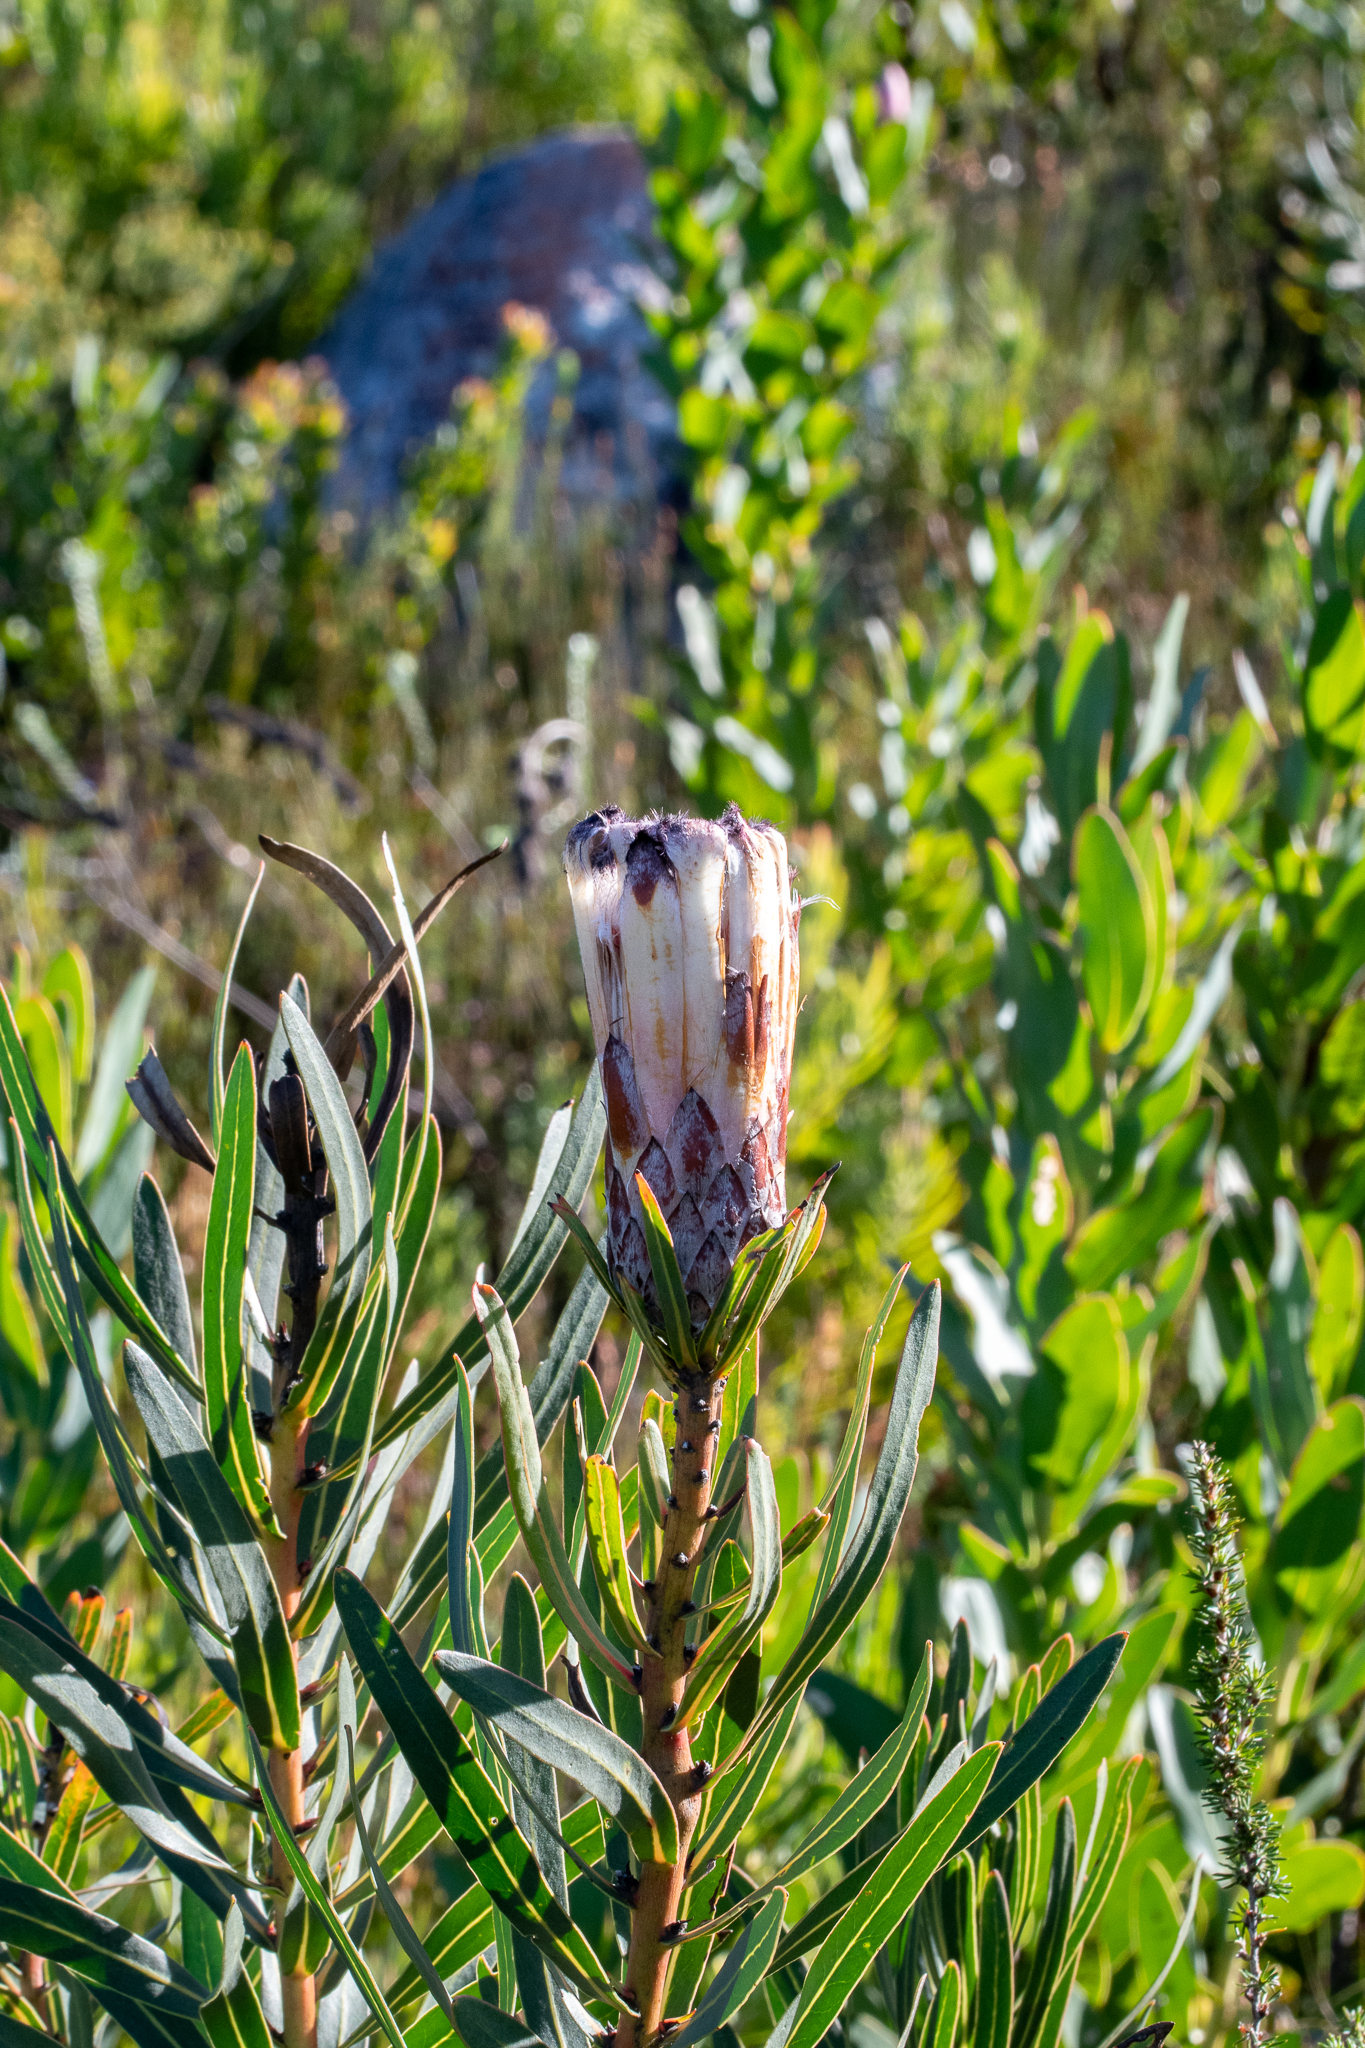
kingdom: Plantae
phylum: Tracheophyta
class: Magnoliopsida
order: Proteales
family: Proteaceae
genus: Protea
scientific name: Protea lepidocarpodendron
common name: Black-bearded protea
